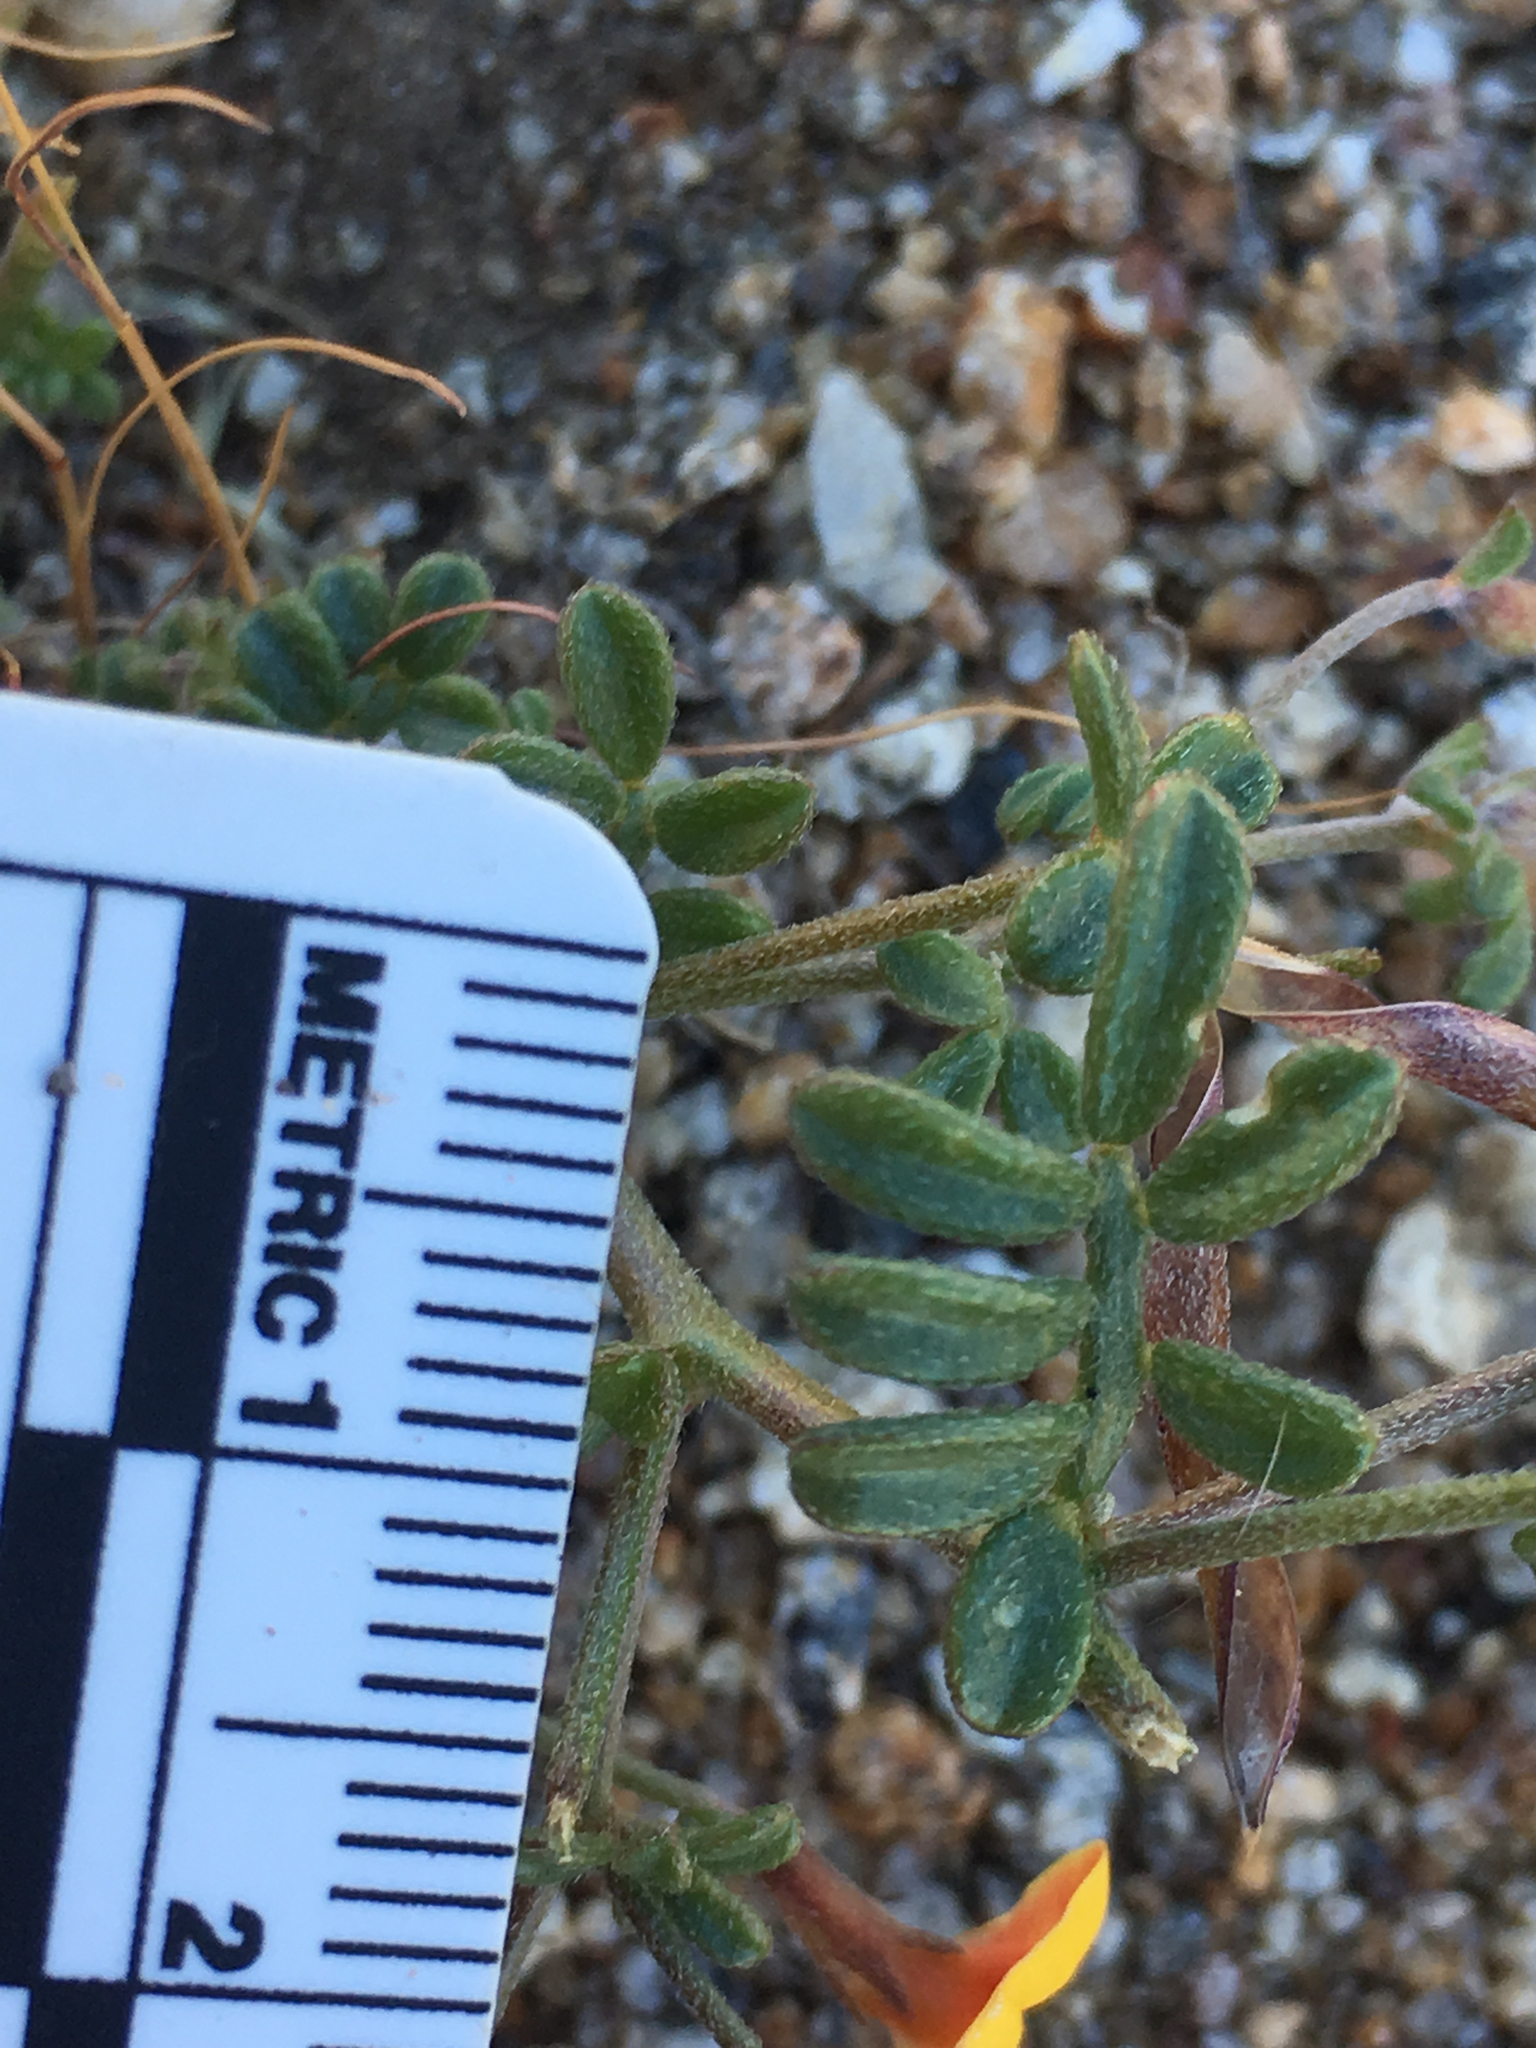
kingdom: Plantae
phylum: Tracheophyta
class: Magnoliopsida
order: Fabales
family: Fabaceae
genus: Acmispon
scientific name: Acmispon strigosus
